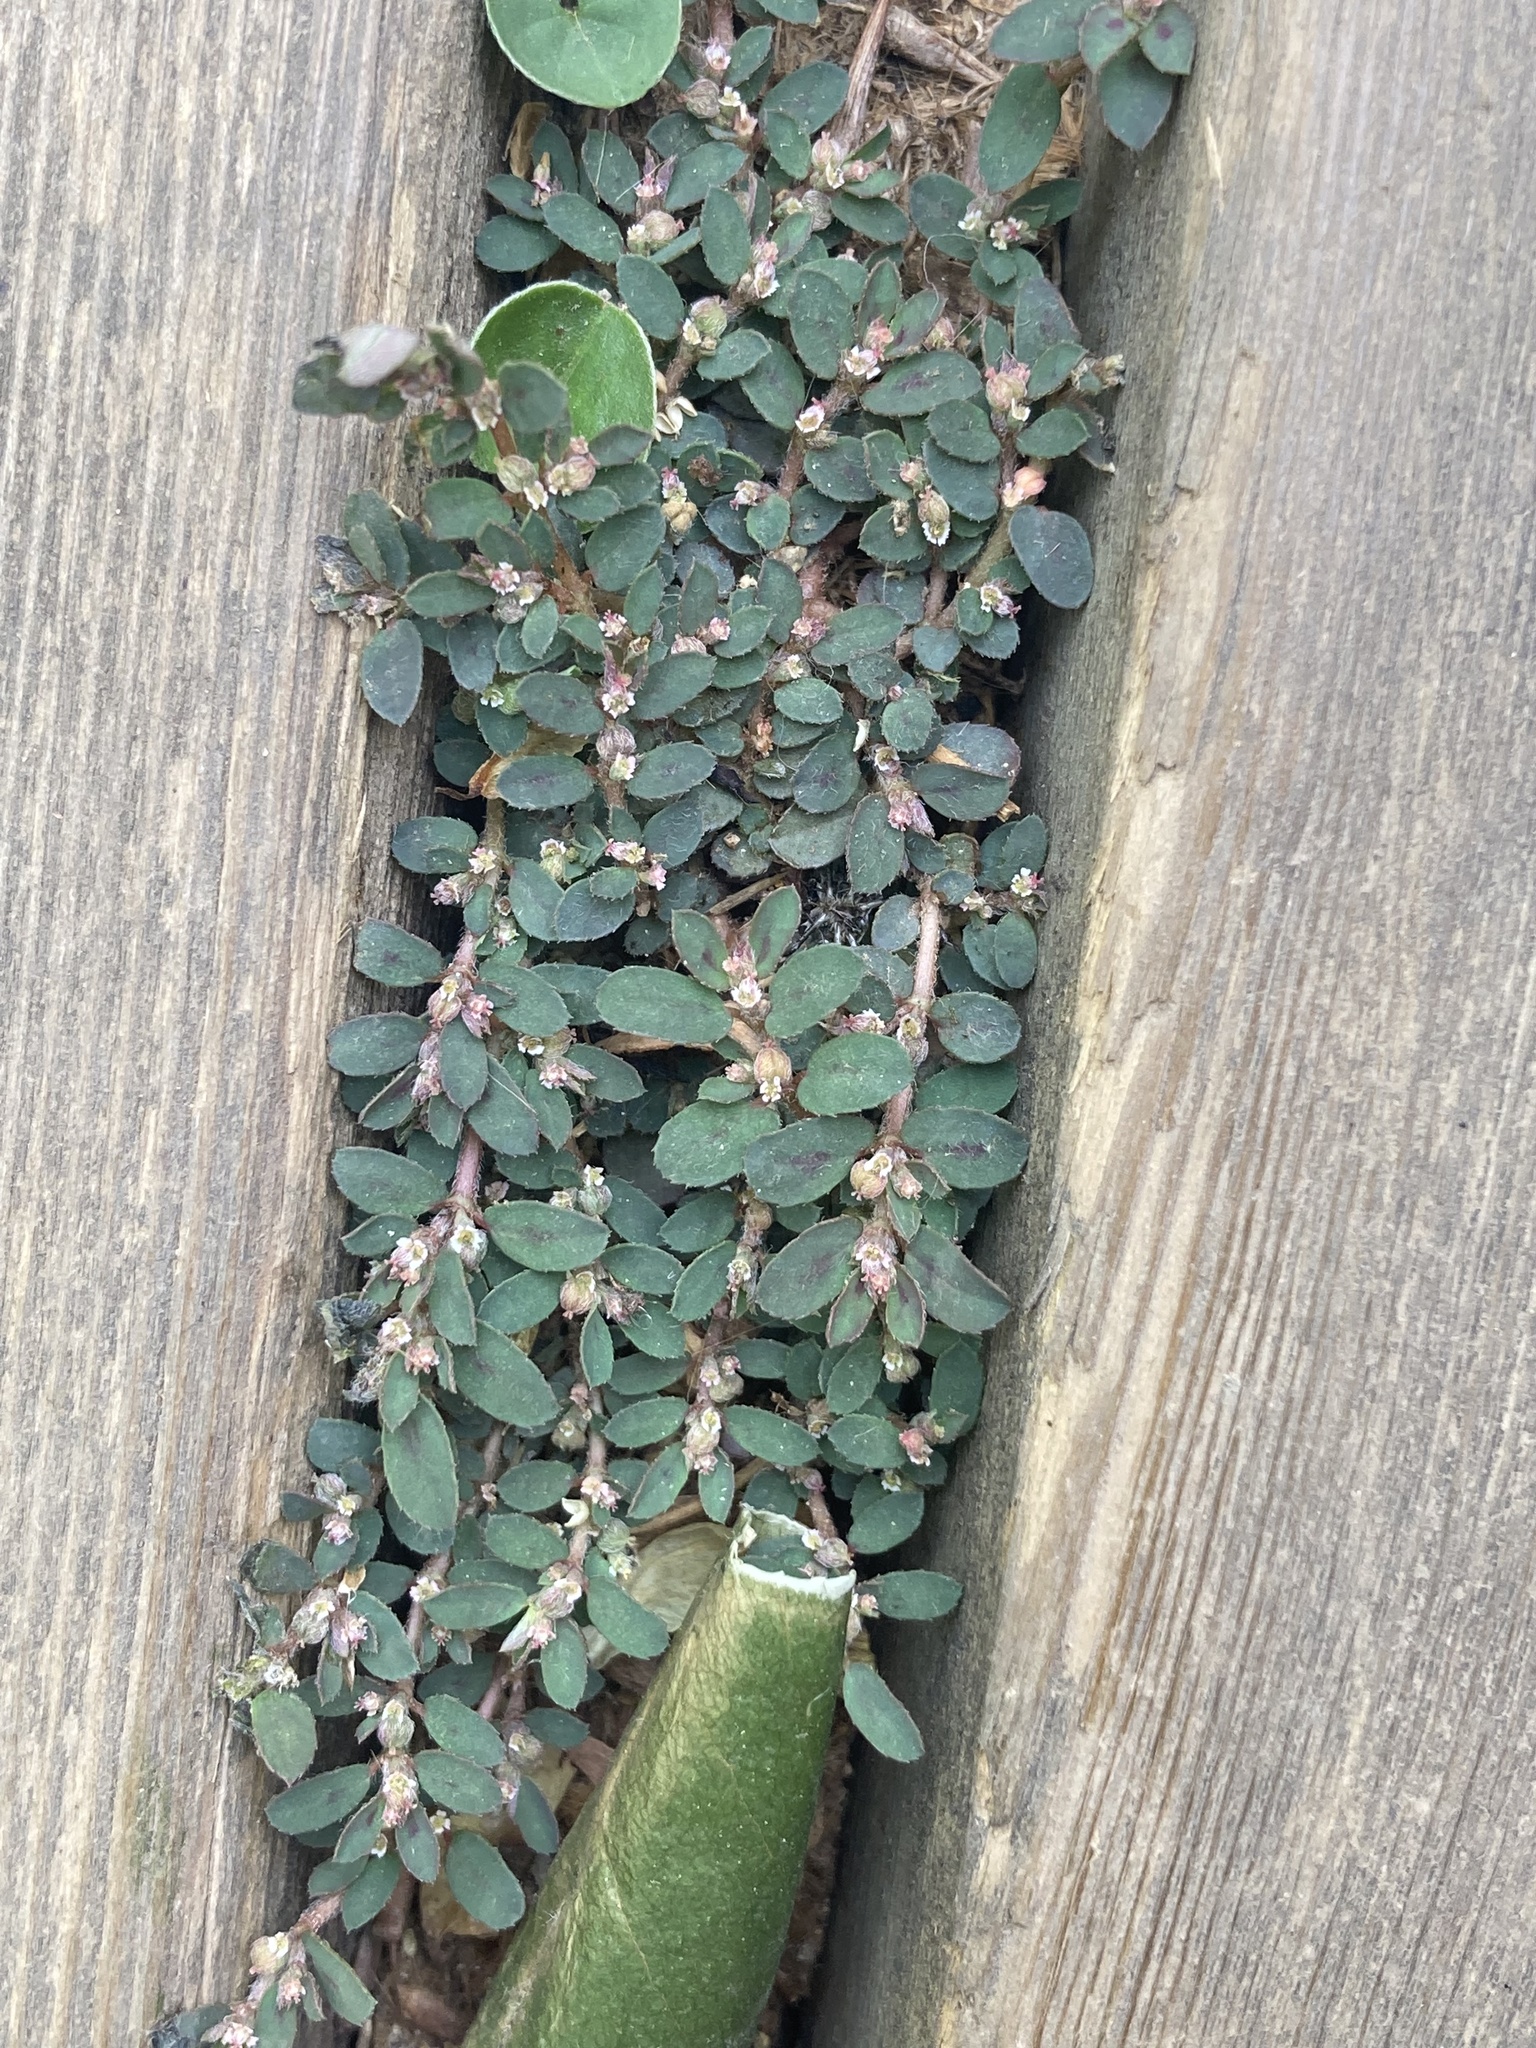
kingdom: Plantae
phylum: Tracheophyta
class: Magnoliopsida
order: Malpighiales
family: Euphorbiaceae
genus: Euphorbia
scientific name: Euphorbia maculata
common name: Spotted spurge
